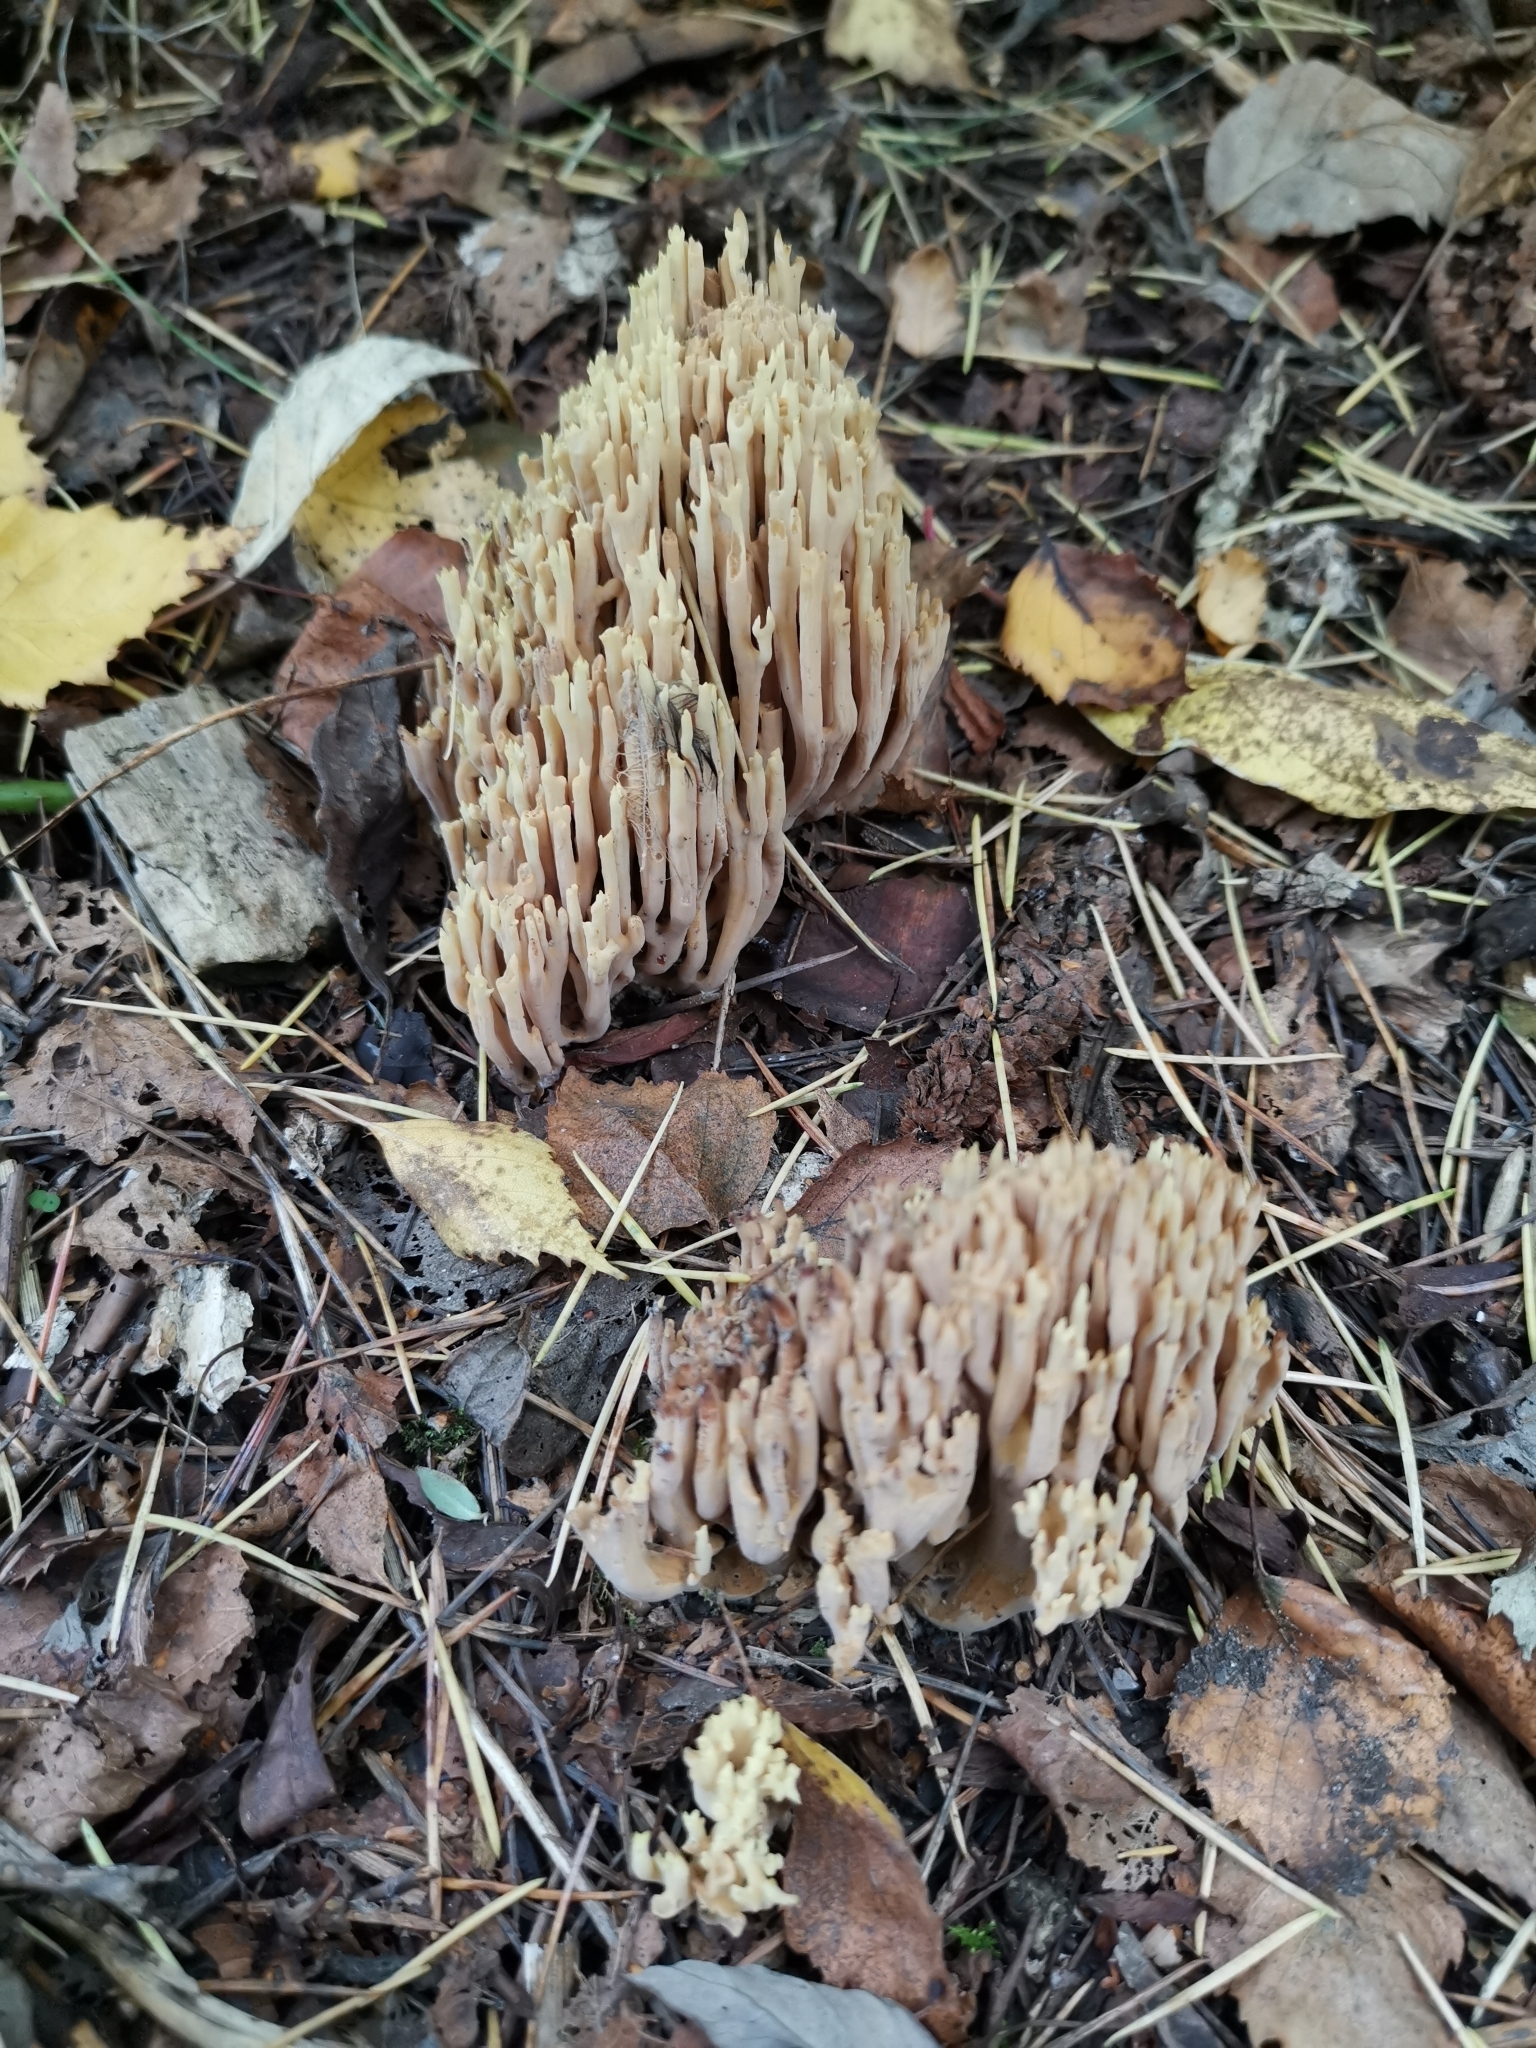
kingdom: Fungi
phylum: Basidiomycota
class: Agaricomycetes
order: Gomphales
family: Gomphaceae
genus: Ramaria
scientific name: Ramaria stricta
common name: Upright coral
